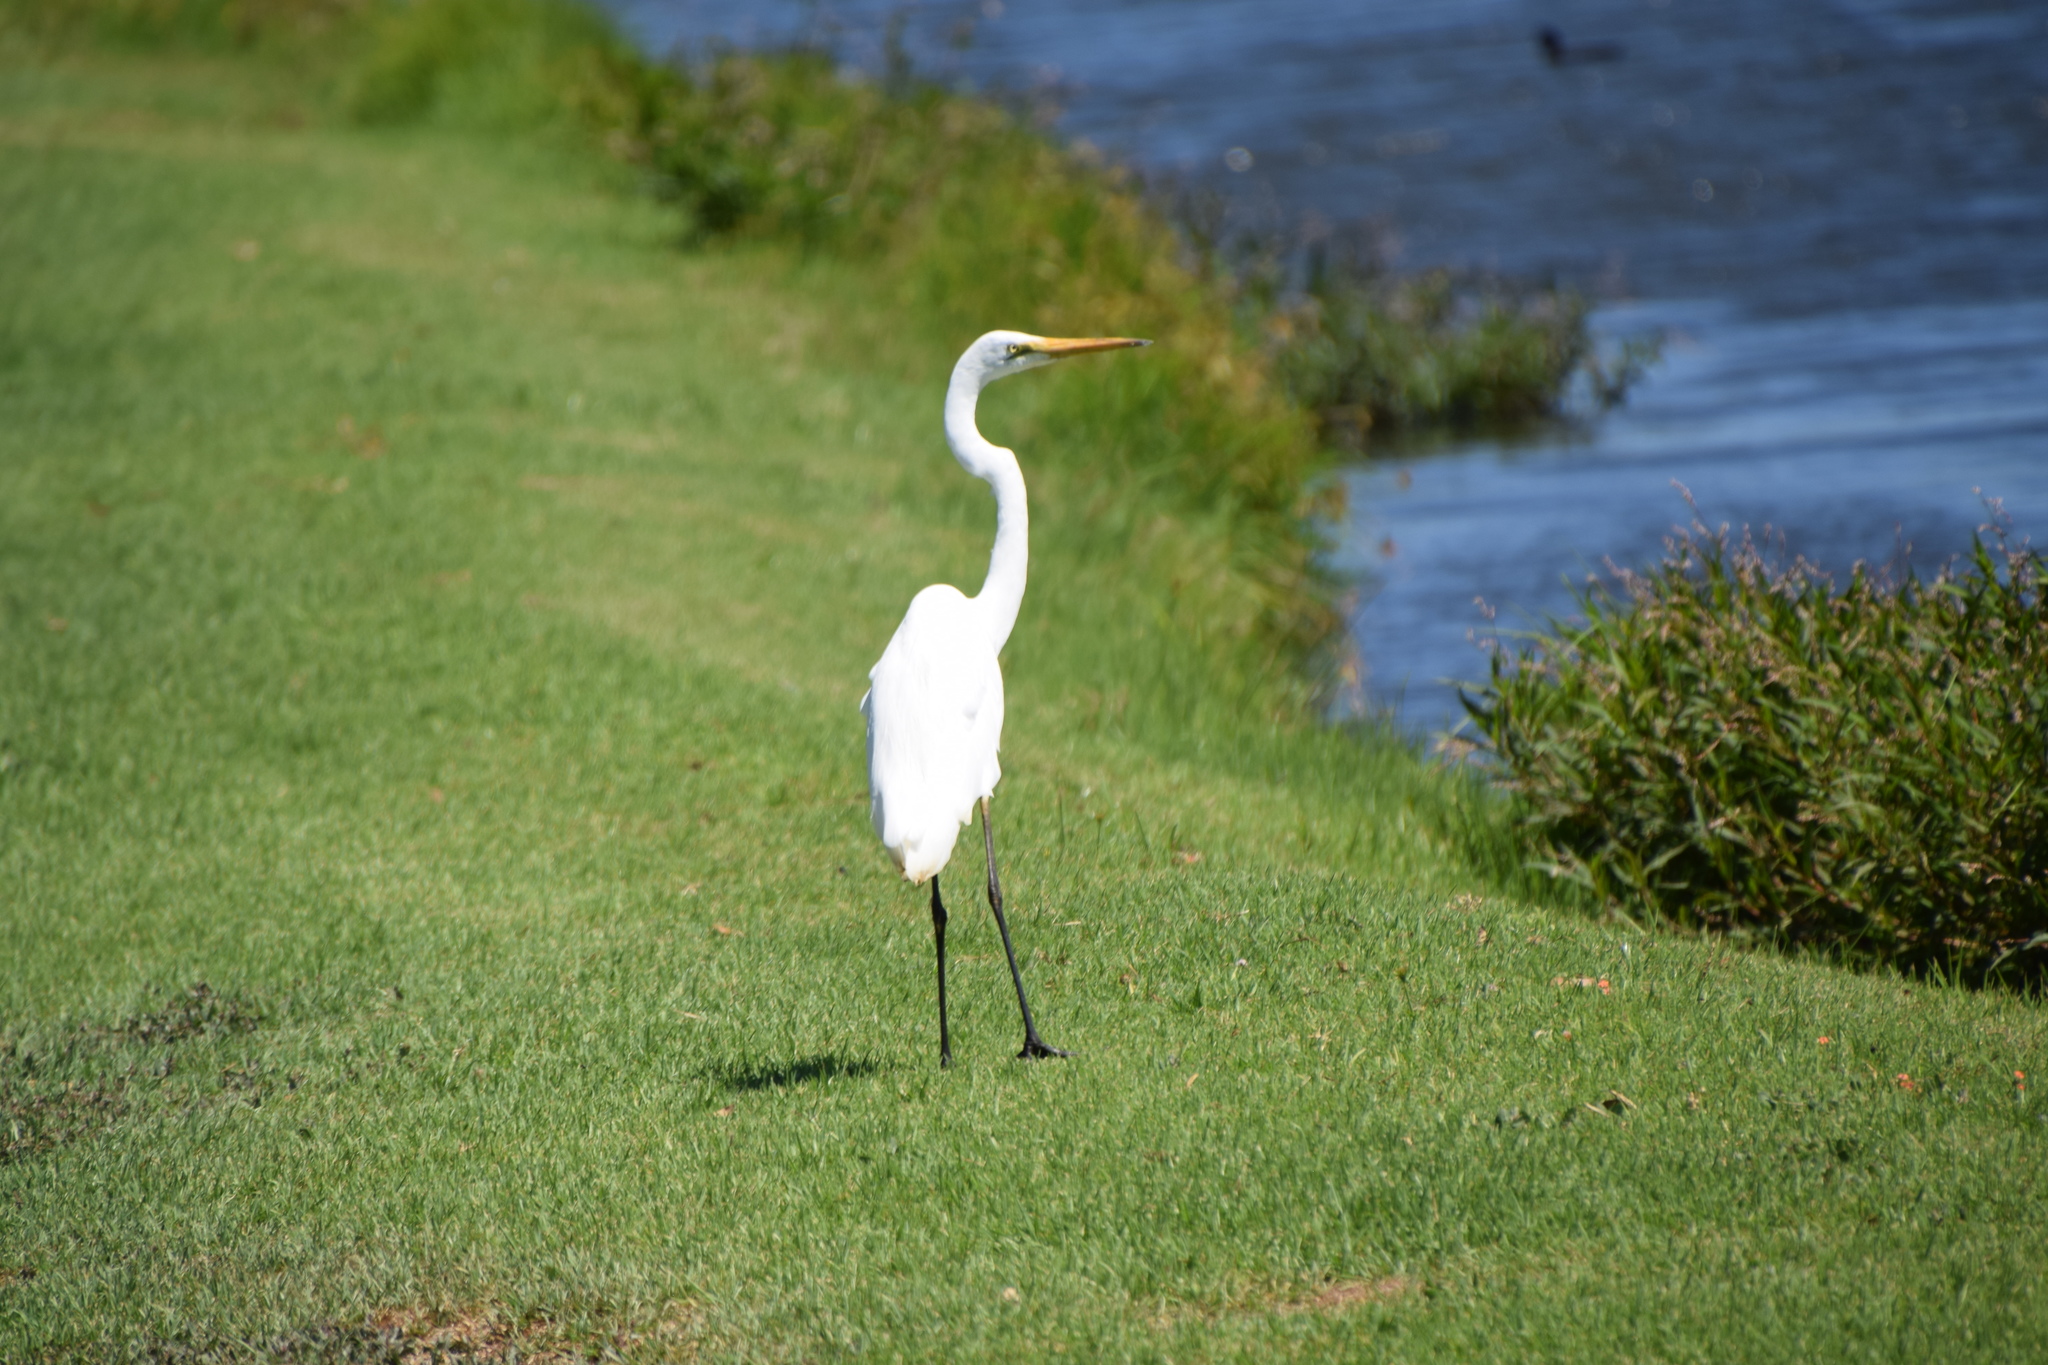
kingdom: Animalia
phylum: Chordata
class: Aves
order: Pelecaniformes
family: Ardeidae
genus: Ardea
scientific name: Ardea modesta
